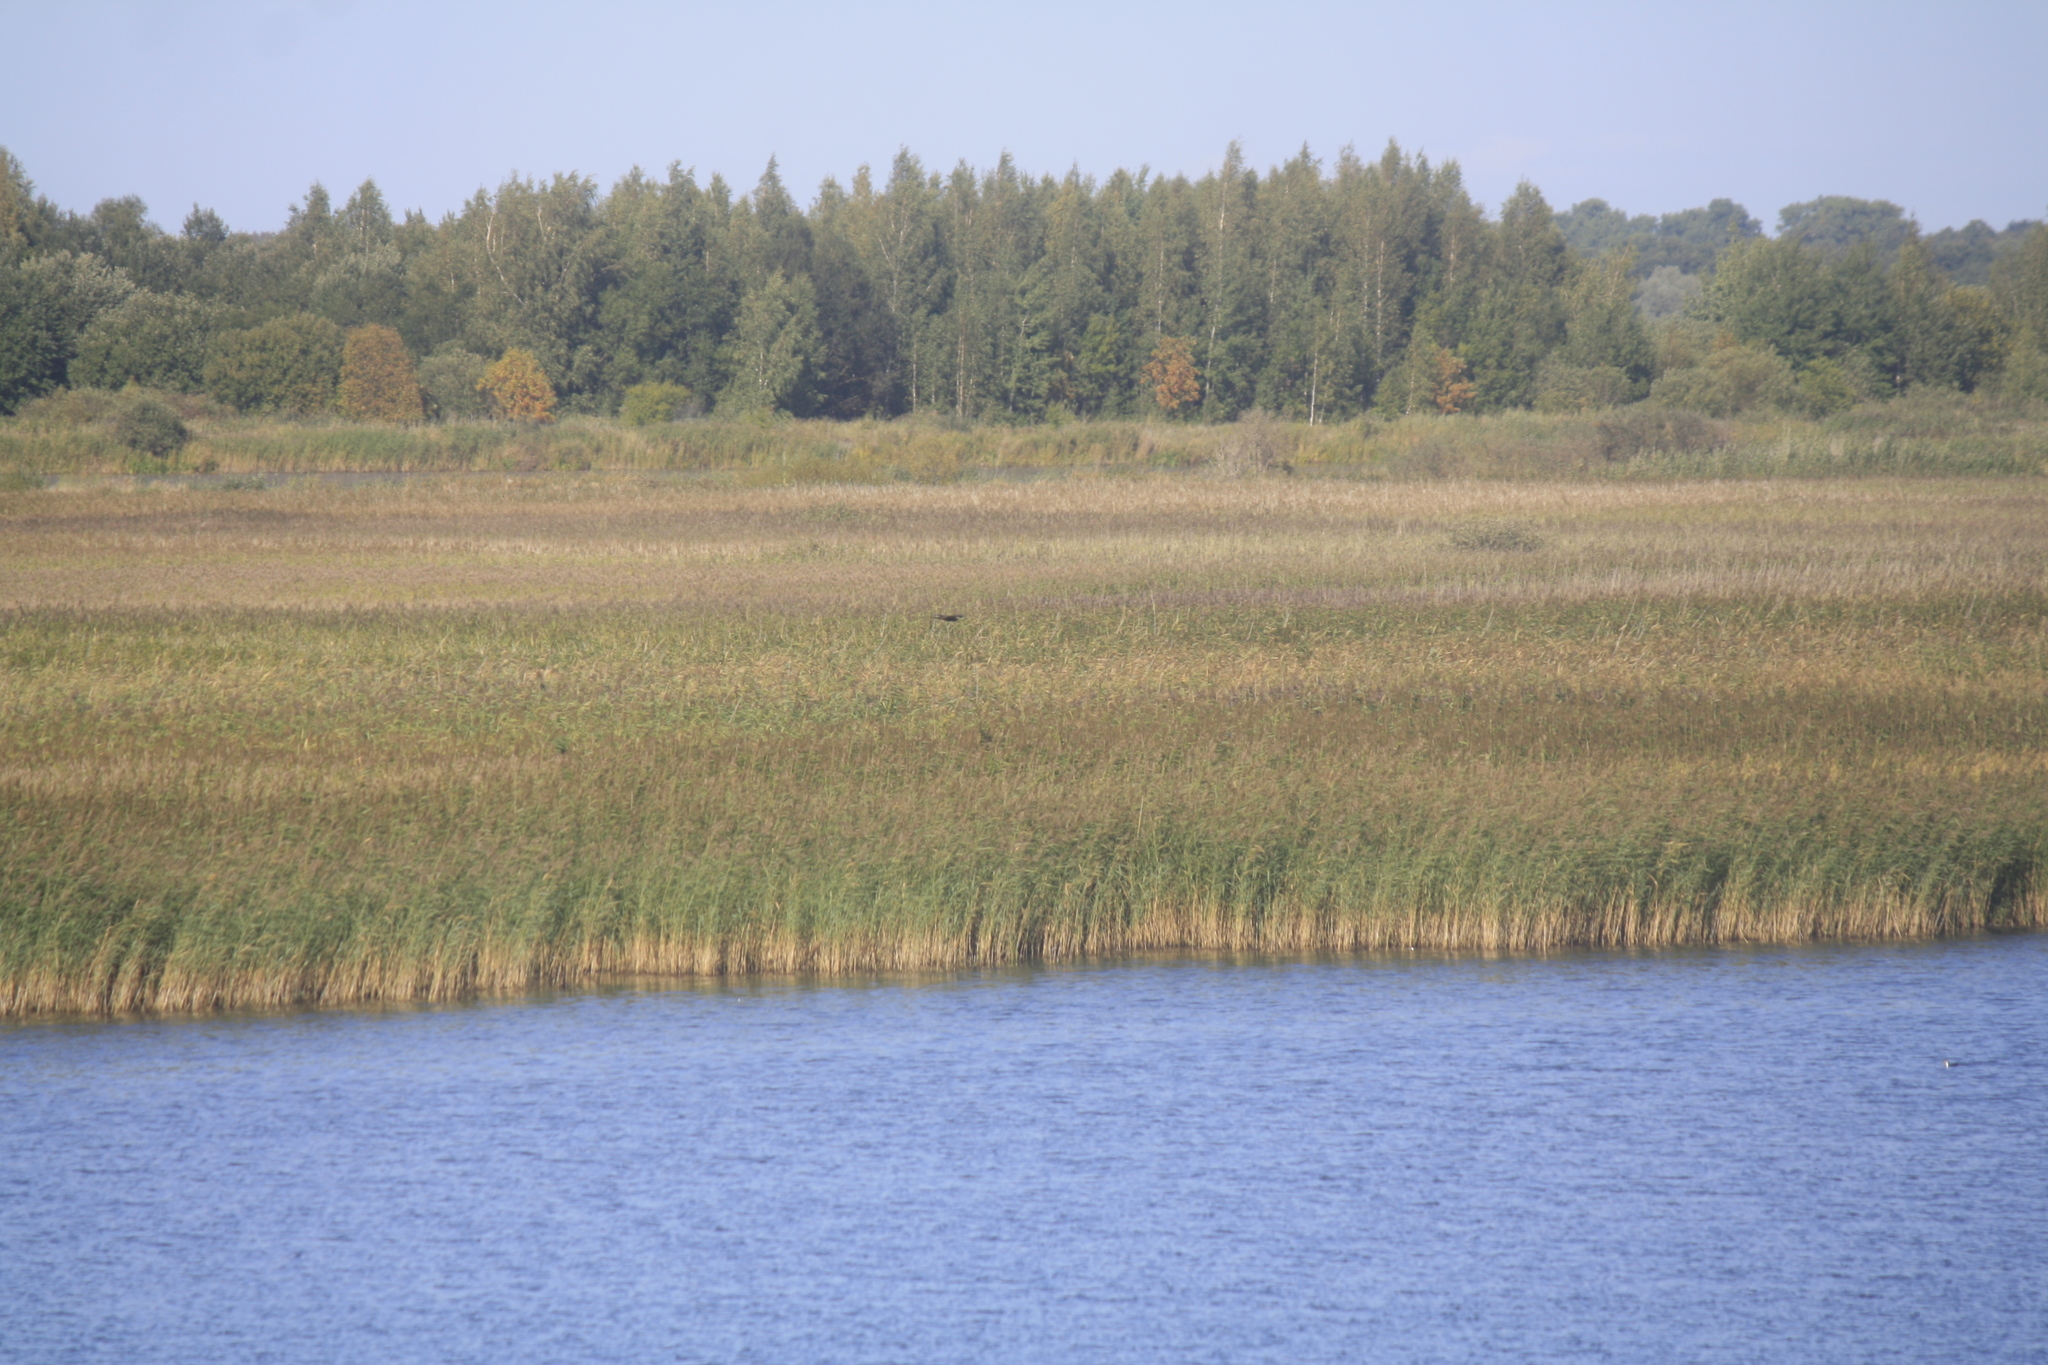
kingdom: Animalia
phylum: Chordata
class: Aves
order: Accipitriformes
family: Accipitridae
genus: Circus
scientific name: Circus aeruginosus
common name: Western marsh harrier
